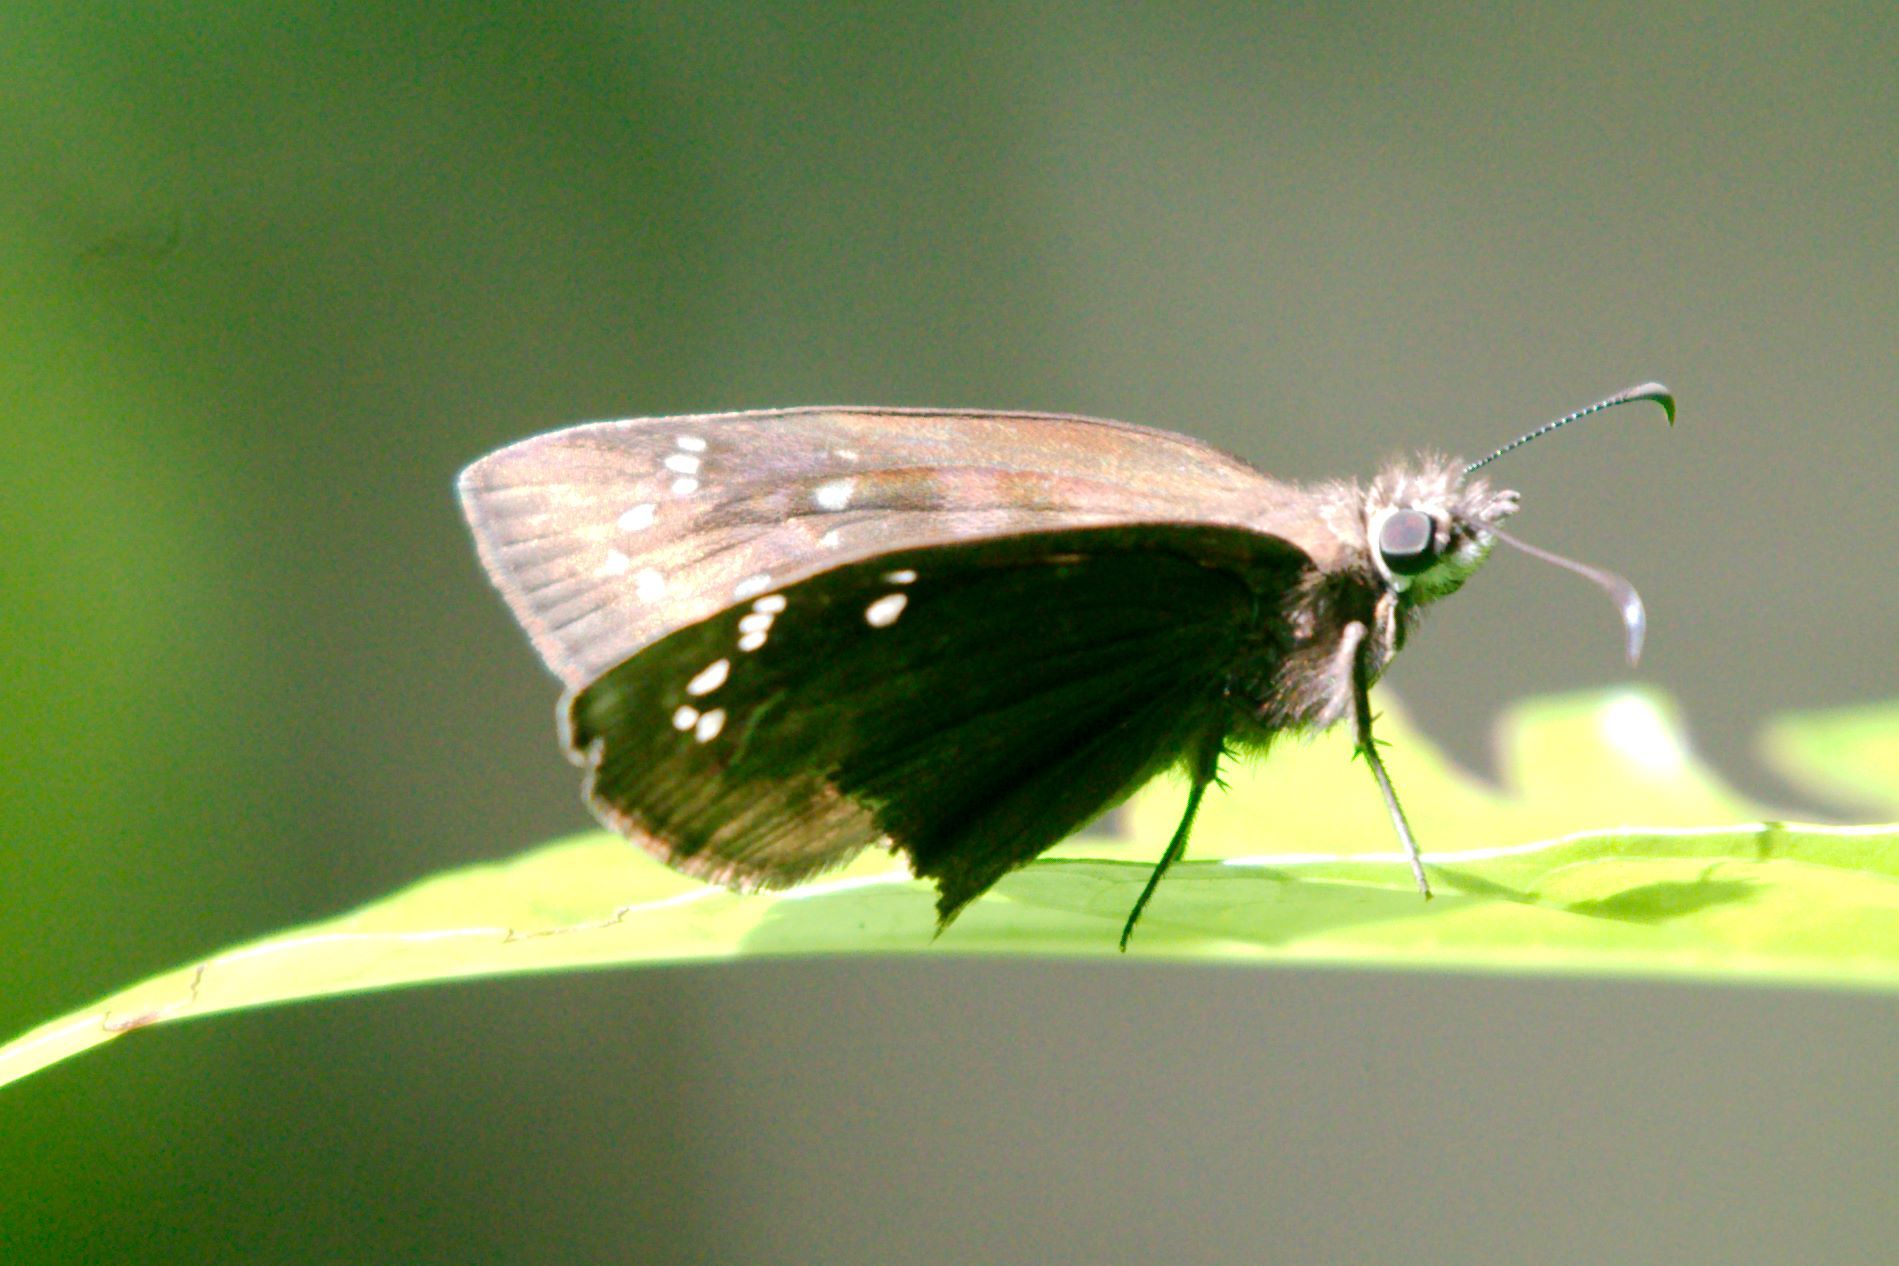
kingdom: Animalia
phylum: Arthropoda
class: Insecta
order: Lepidoptera
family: Hesperiidae
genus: Ephyriades
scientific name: Ephyriades brunnea
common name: Florida duskywing
